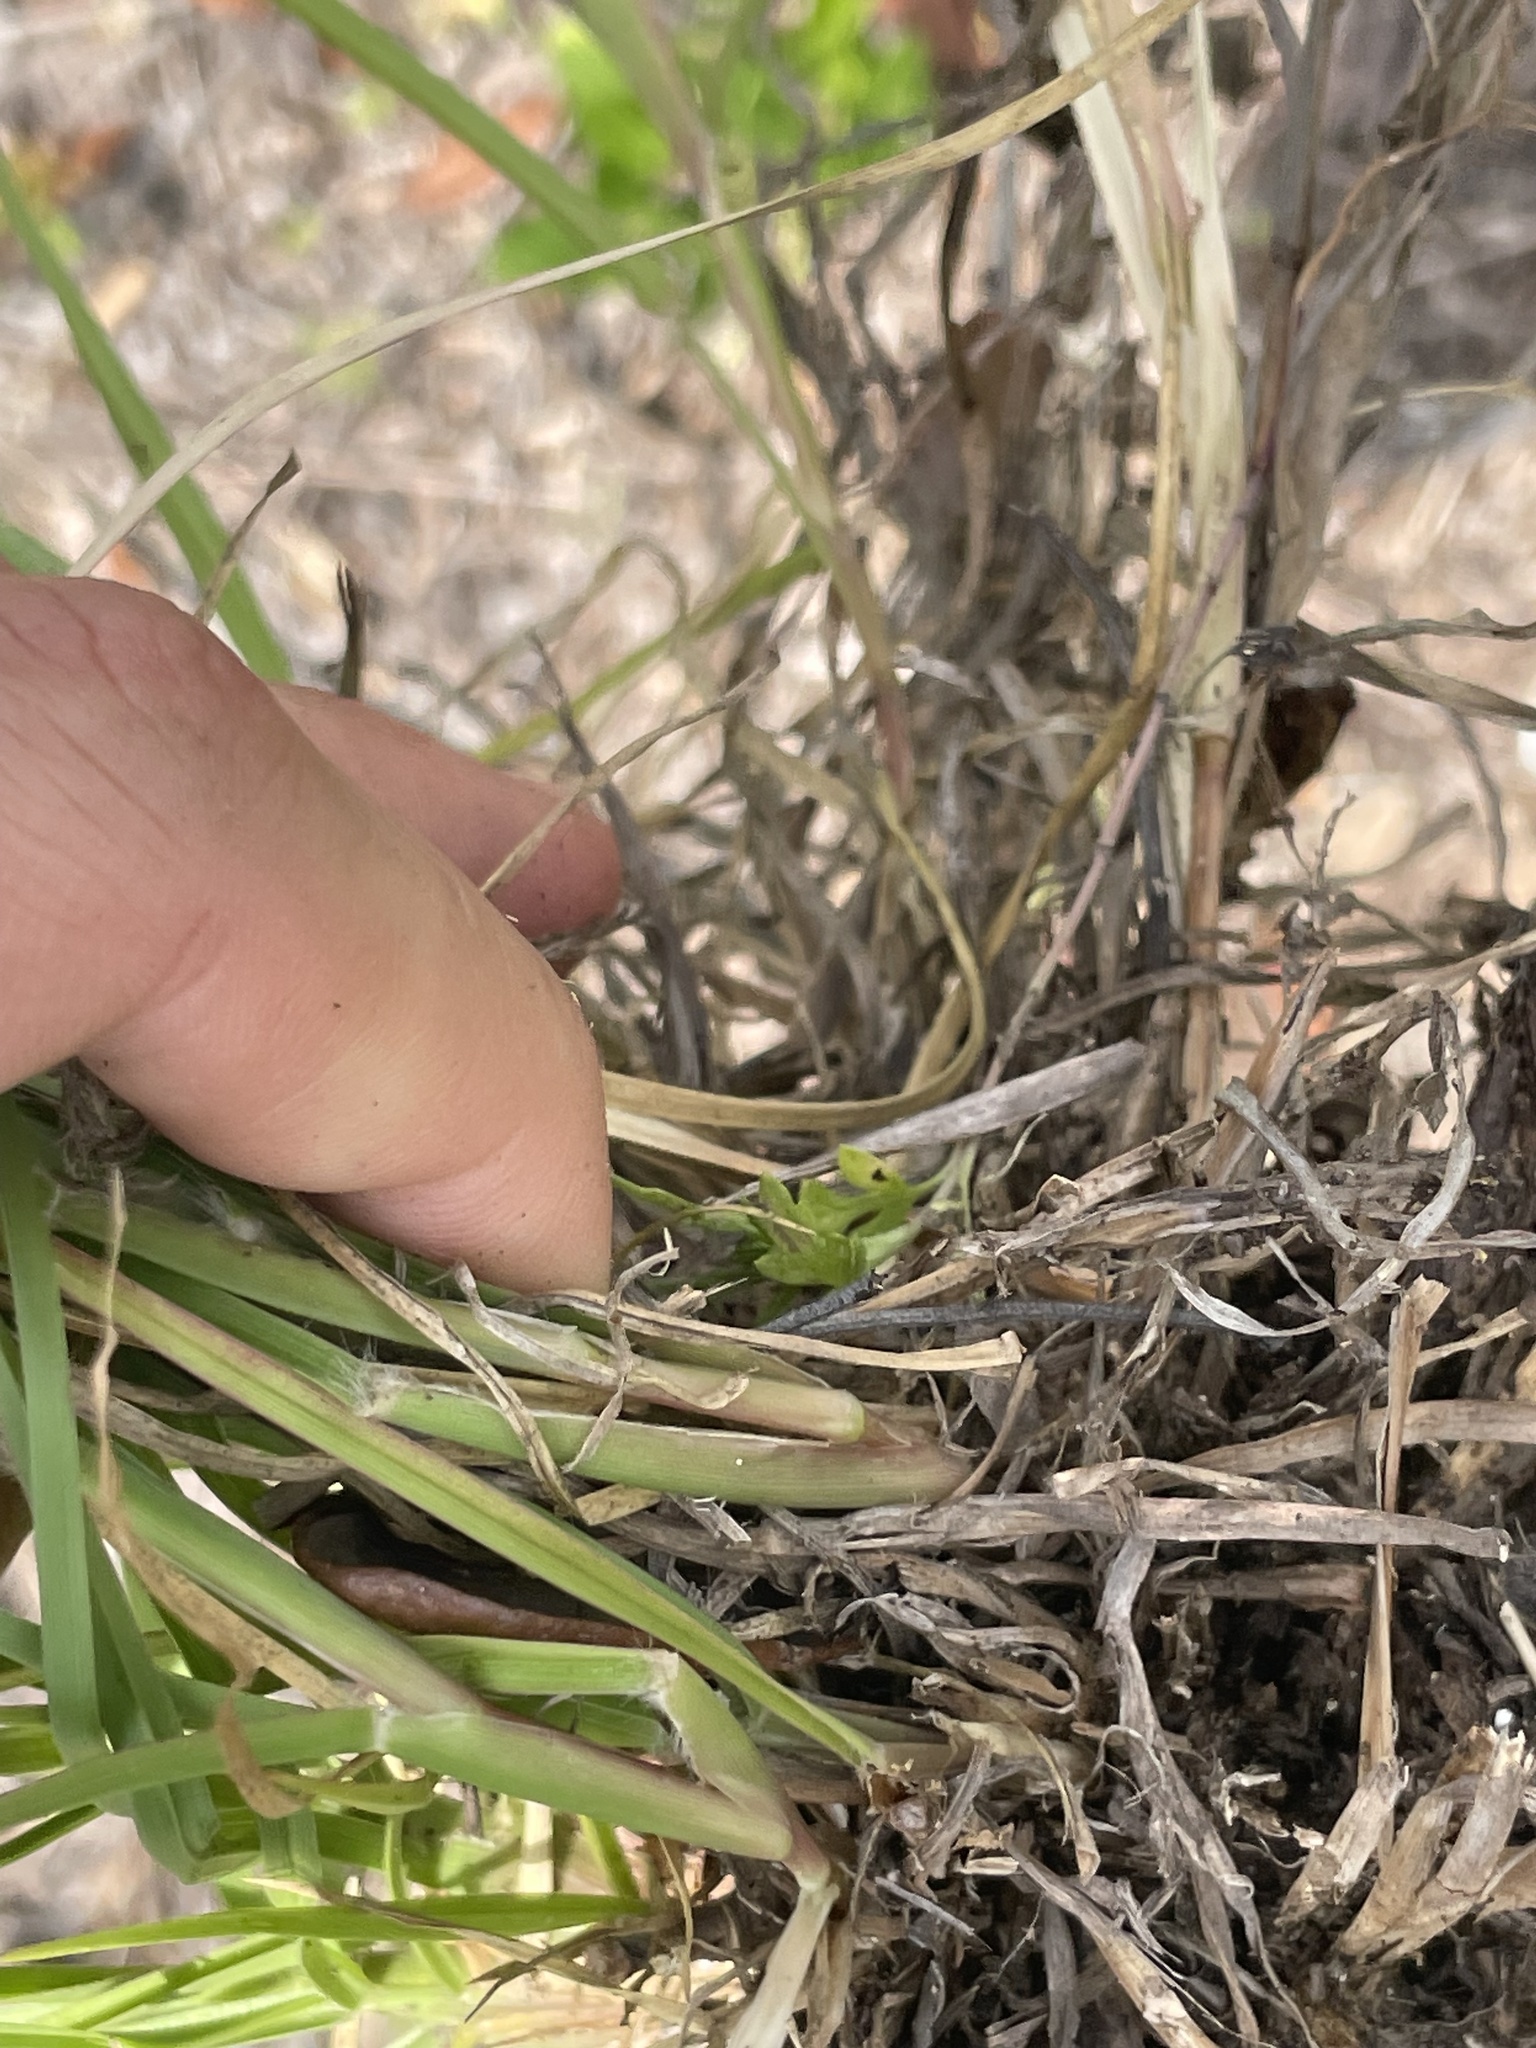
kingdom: Plantae
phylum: Tracheophyta
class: Liliopsida
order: Poales
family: Poaceae
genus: Cenchrus
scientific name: Cenchrus spinifex
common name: Coast sandbur
